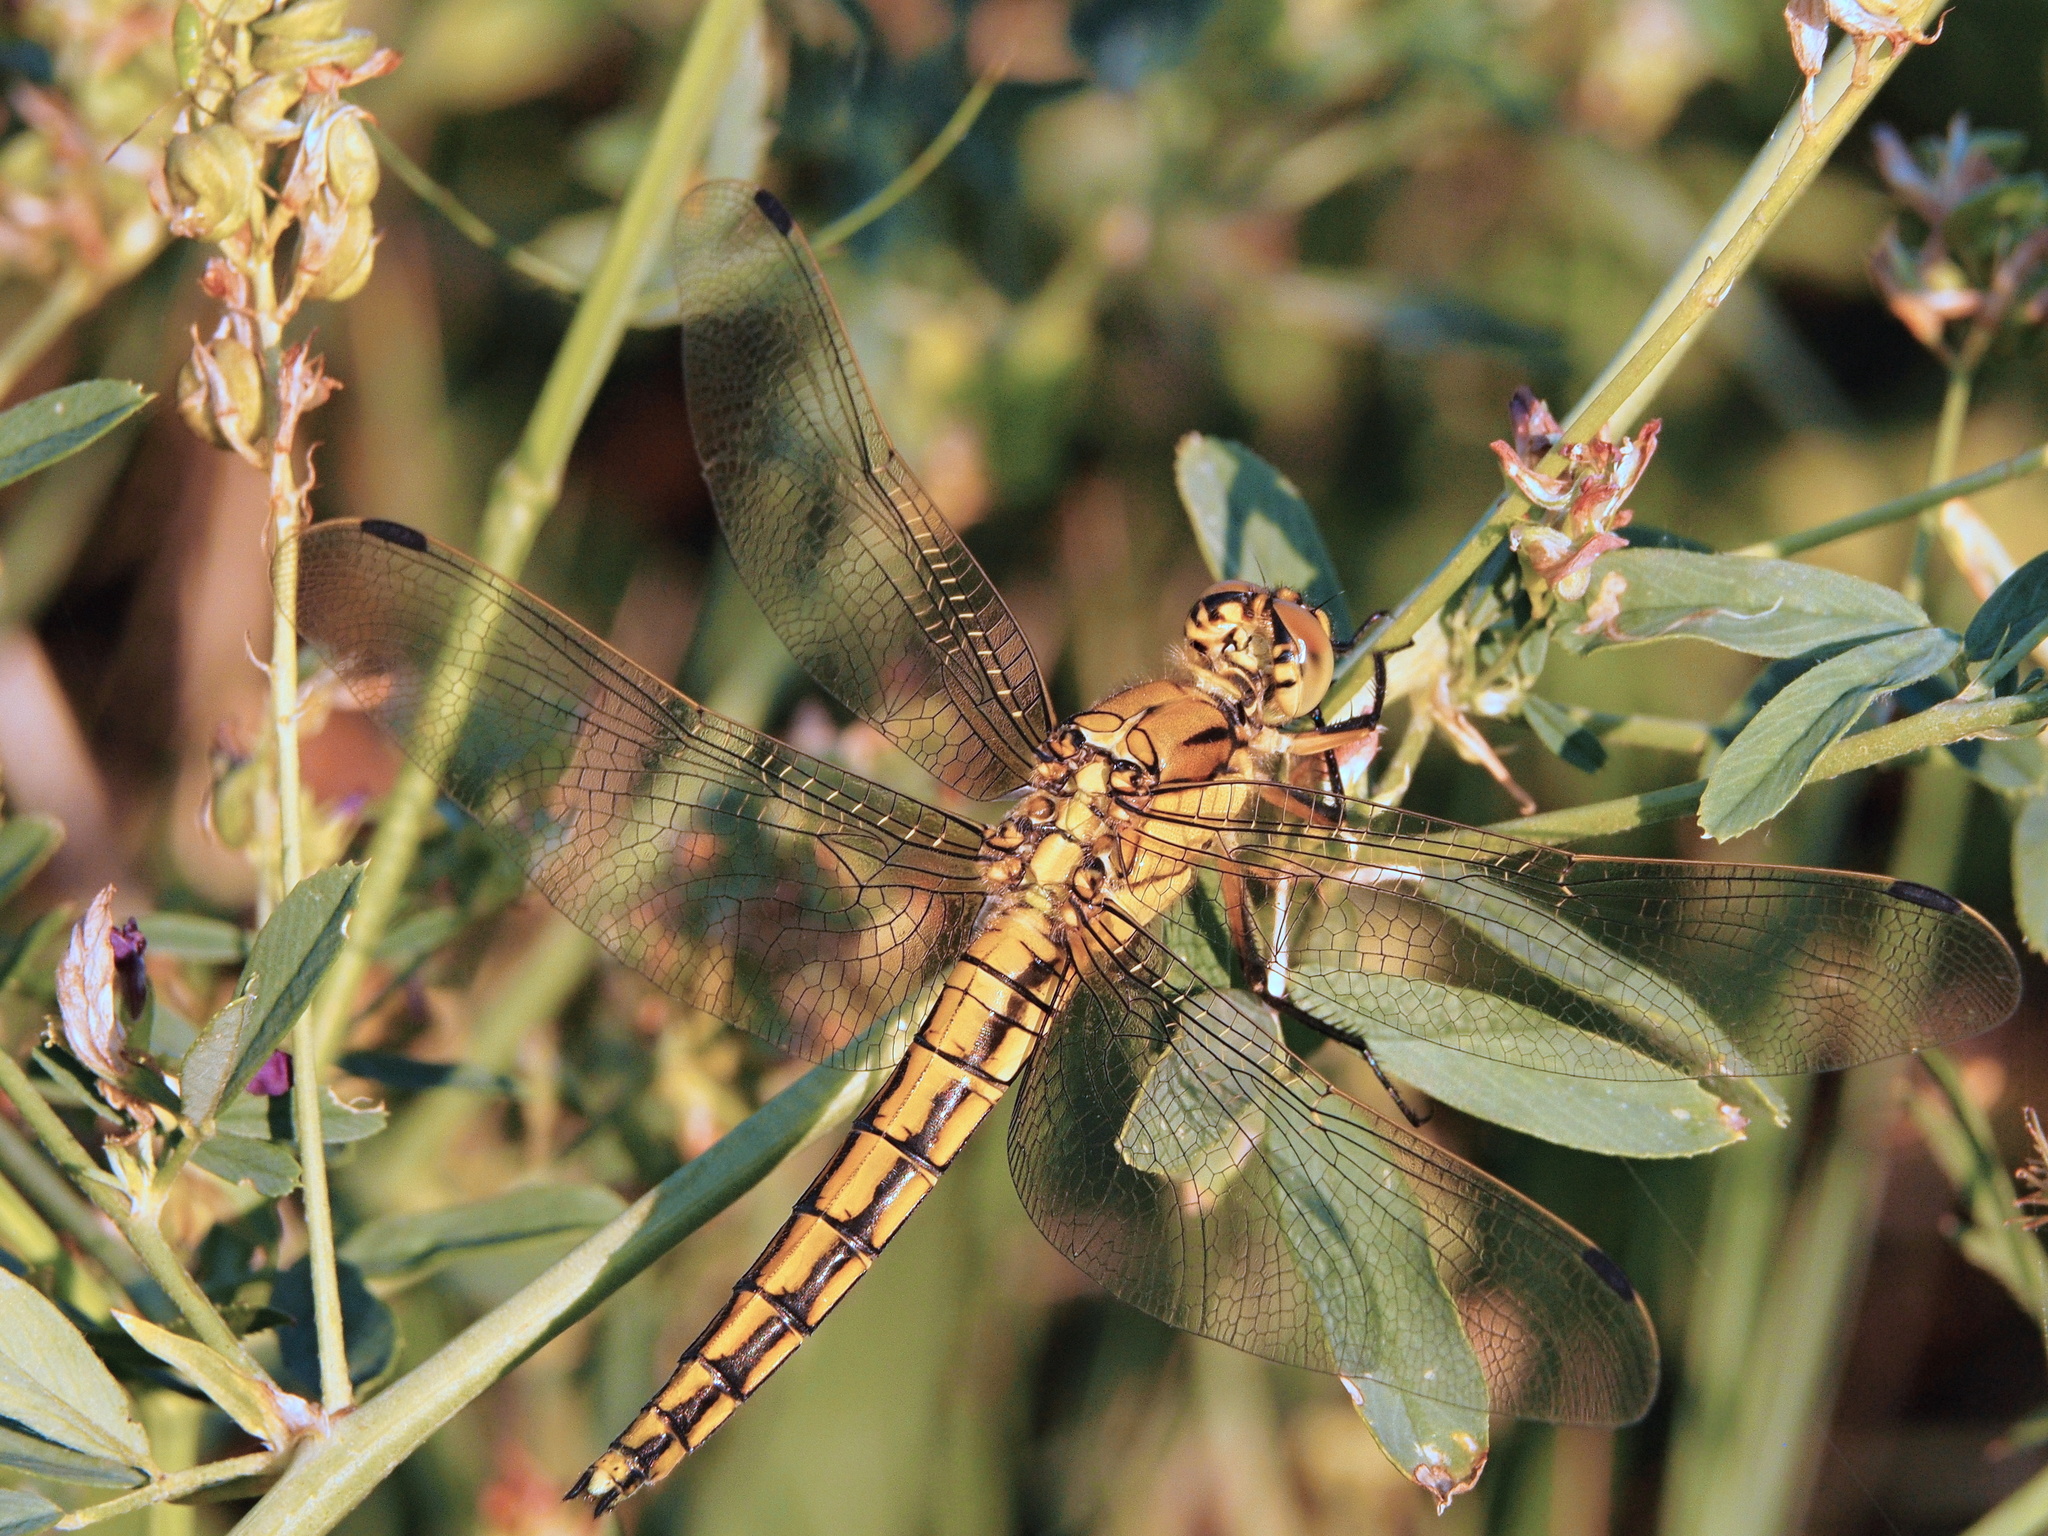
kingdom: Animalia
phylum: Arthropoda
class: Insecta
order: Odonata
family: Libellulidae
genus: Orthetrum
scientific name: Orthetrum cancellatum
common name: Black-tailed skimmer
